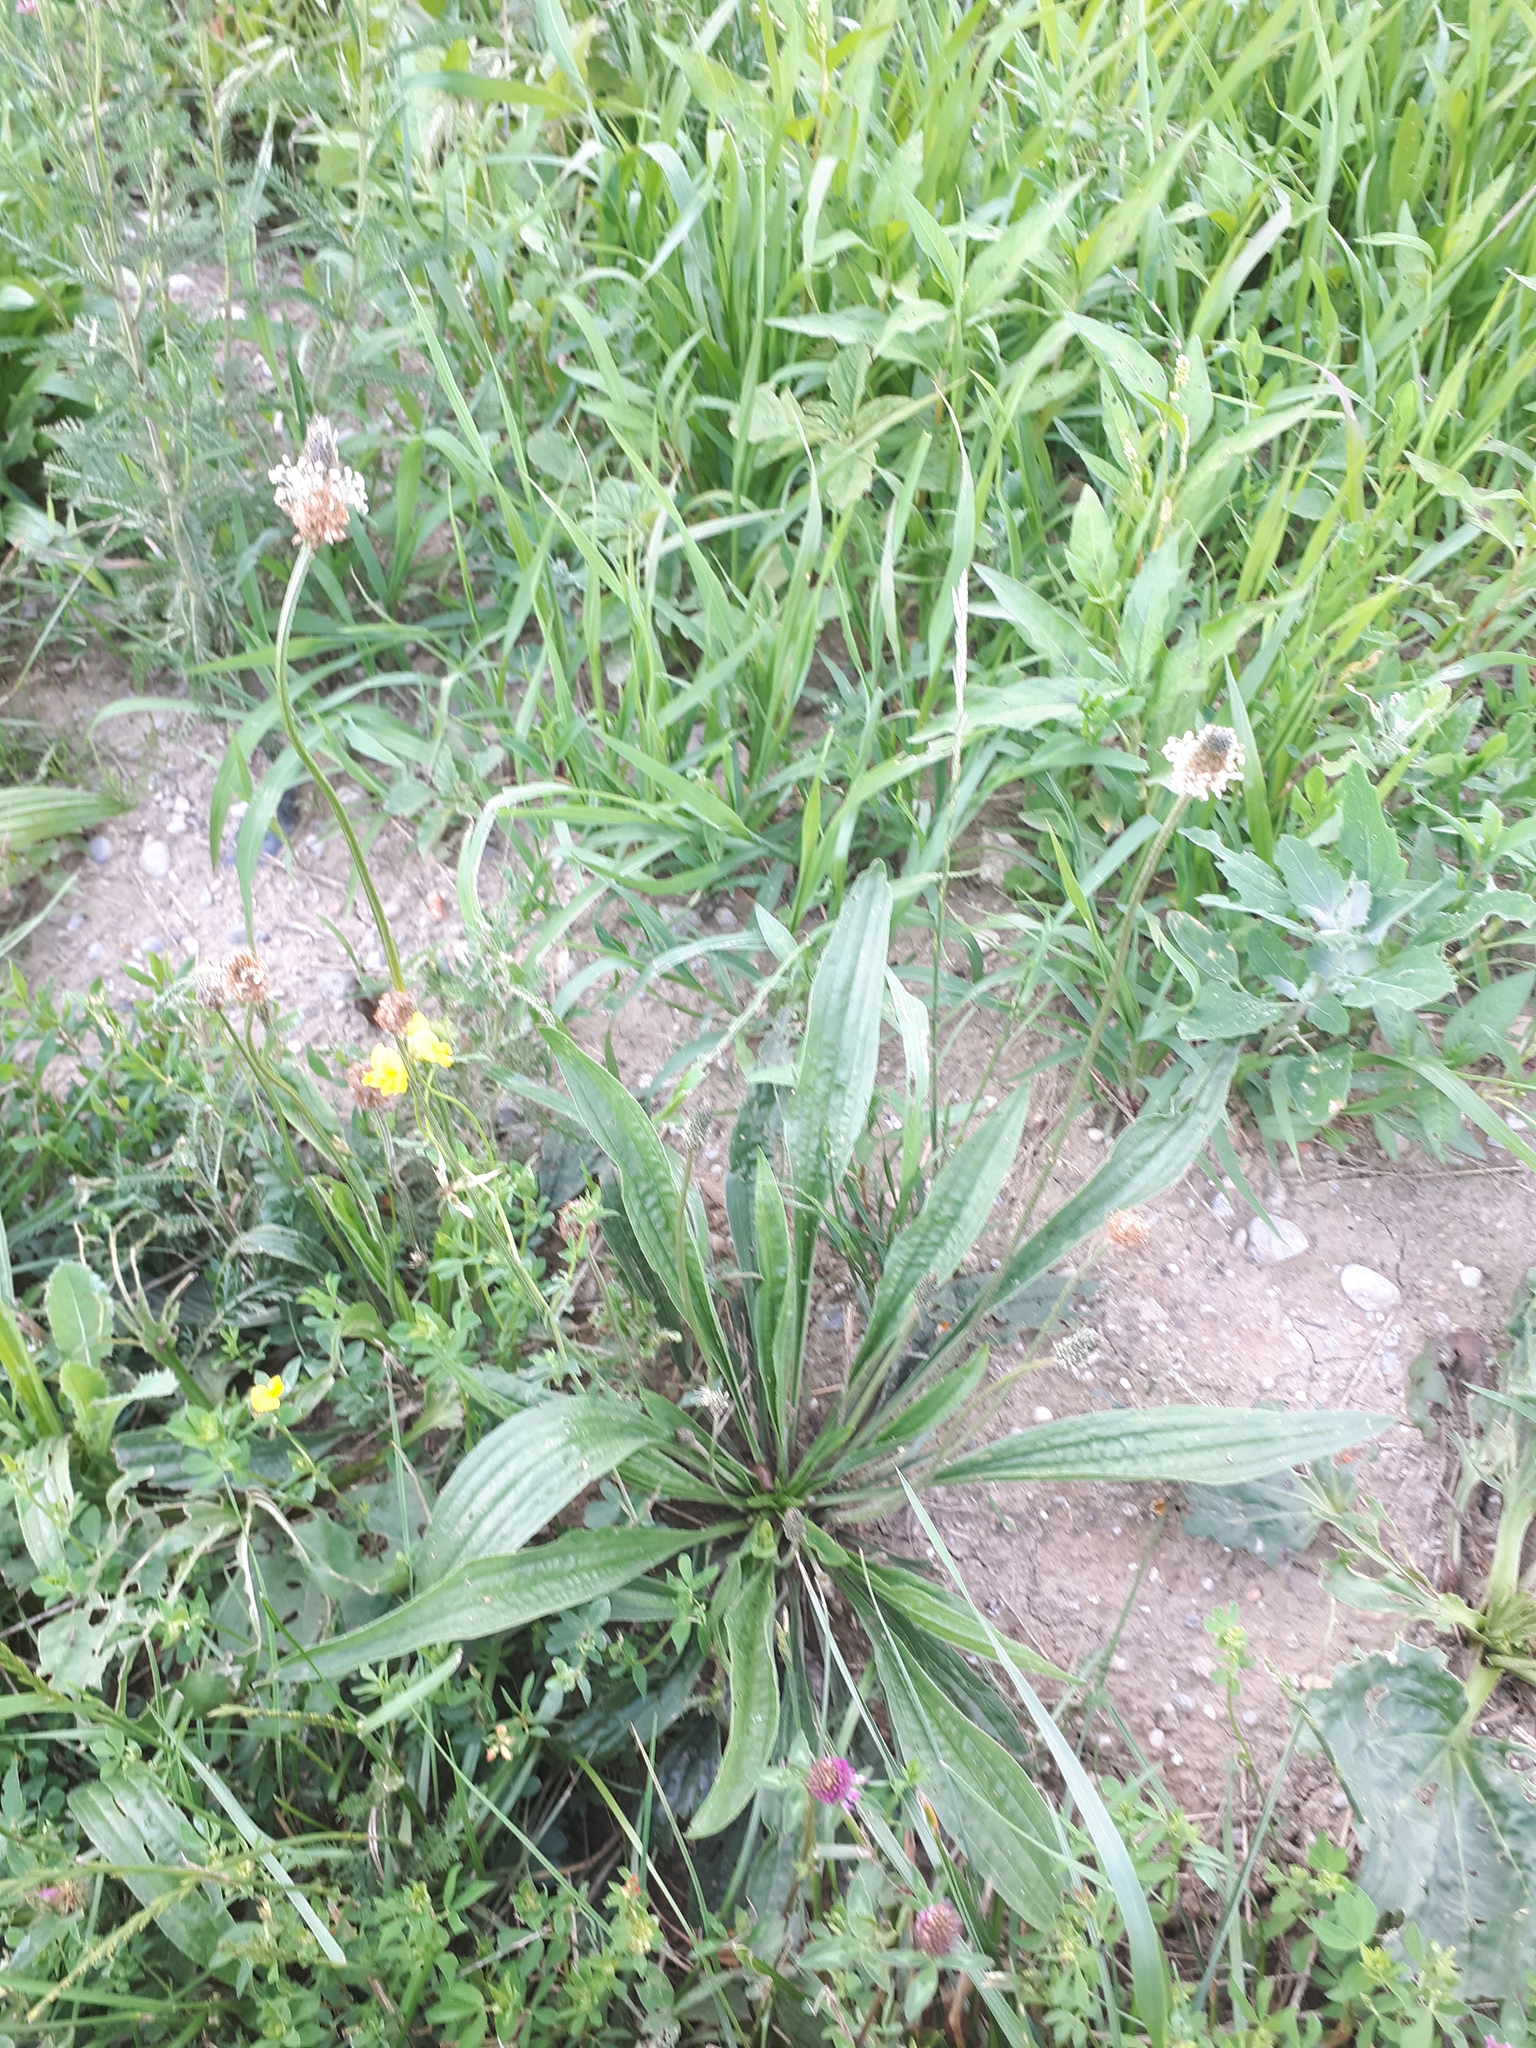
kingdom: Plantae
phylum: Tracheophyta
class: Magnoliopsida
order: Lamiales
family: Plantaginaceae
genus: Plantago
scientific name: Plantago lanceolata
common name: Ribwort plantain
